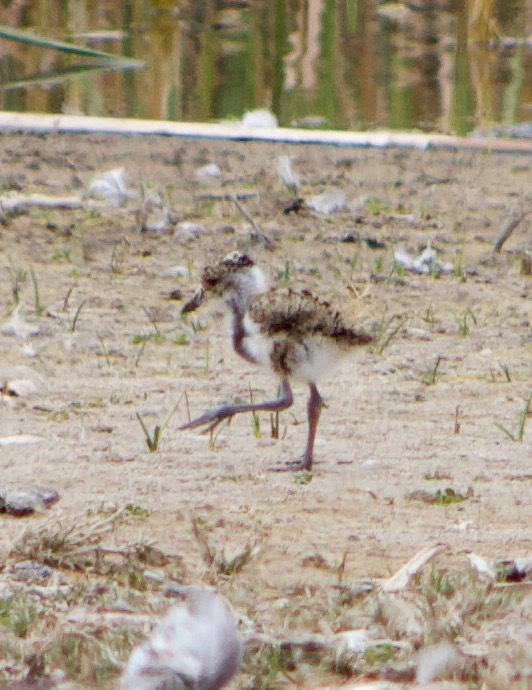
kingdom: Animalia
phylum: Chordata
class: Aves
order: Charadriiformes
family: Charadriidae
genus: Vanellus
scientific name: Vanellus chilensis
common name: Southern lapwing
